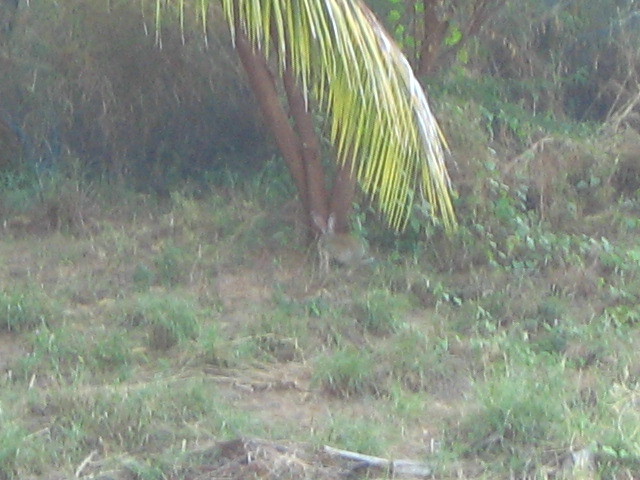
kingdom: Animalia
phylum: Chordata
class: Mammalia
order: Lagomorpha
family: Leporidae
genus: Lepus
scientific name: Lepus nigricollis
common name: Indian hare
